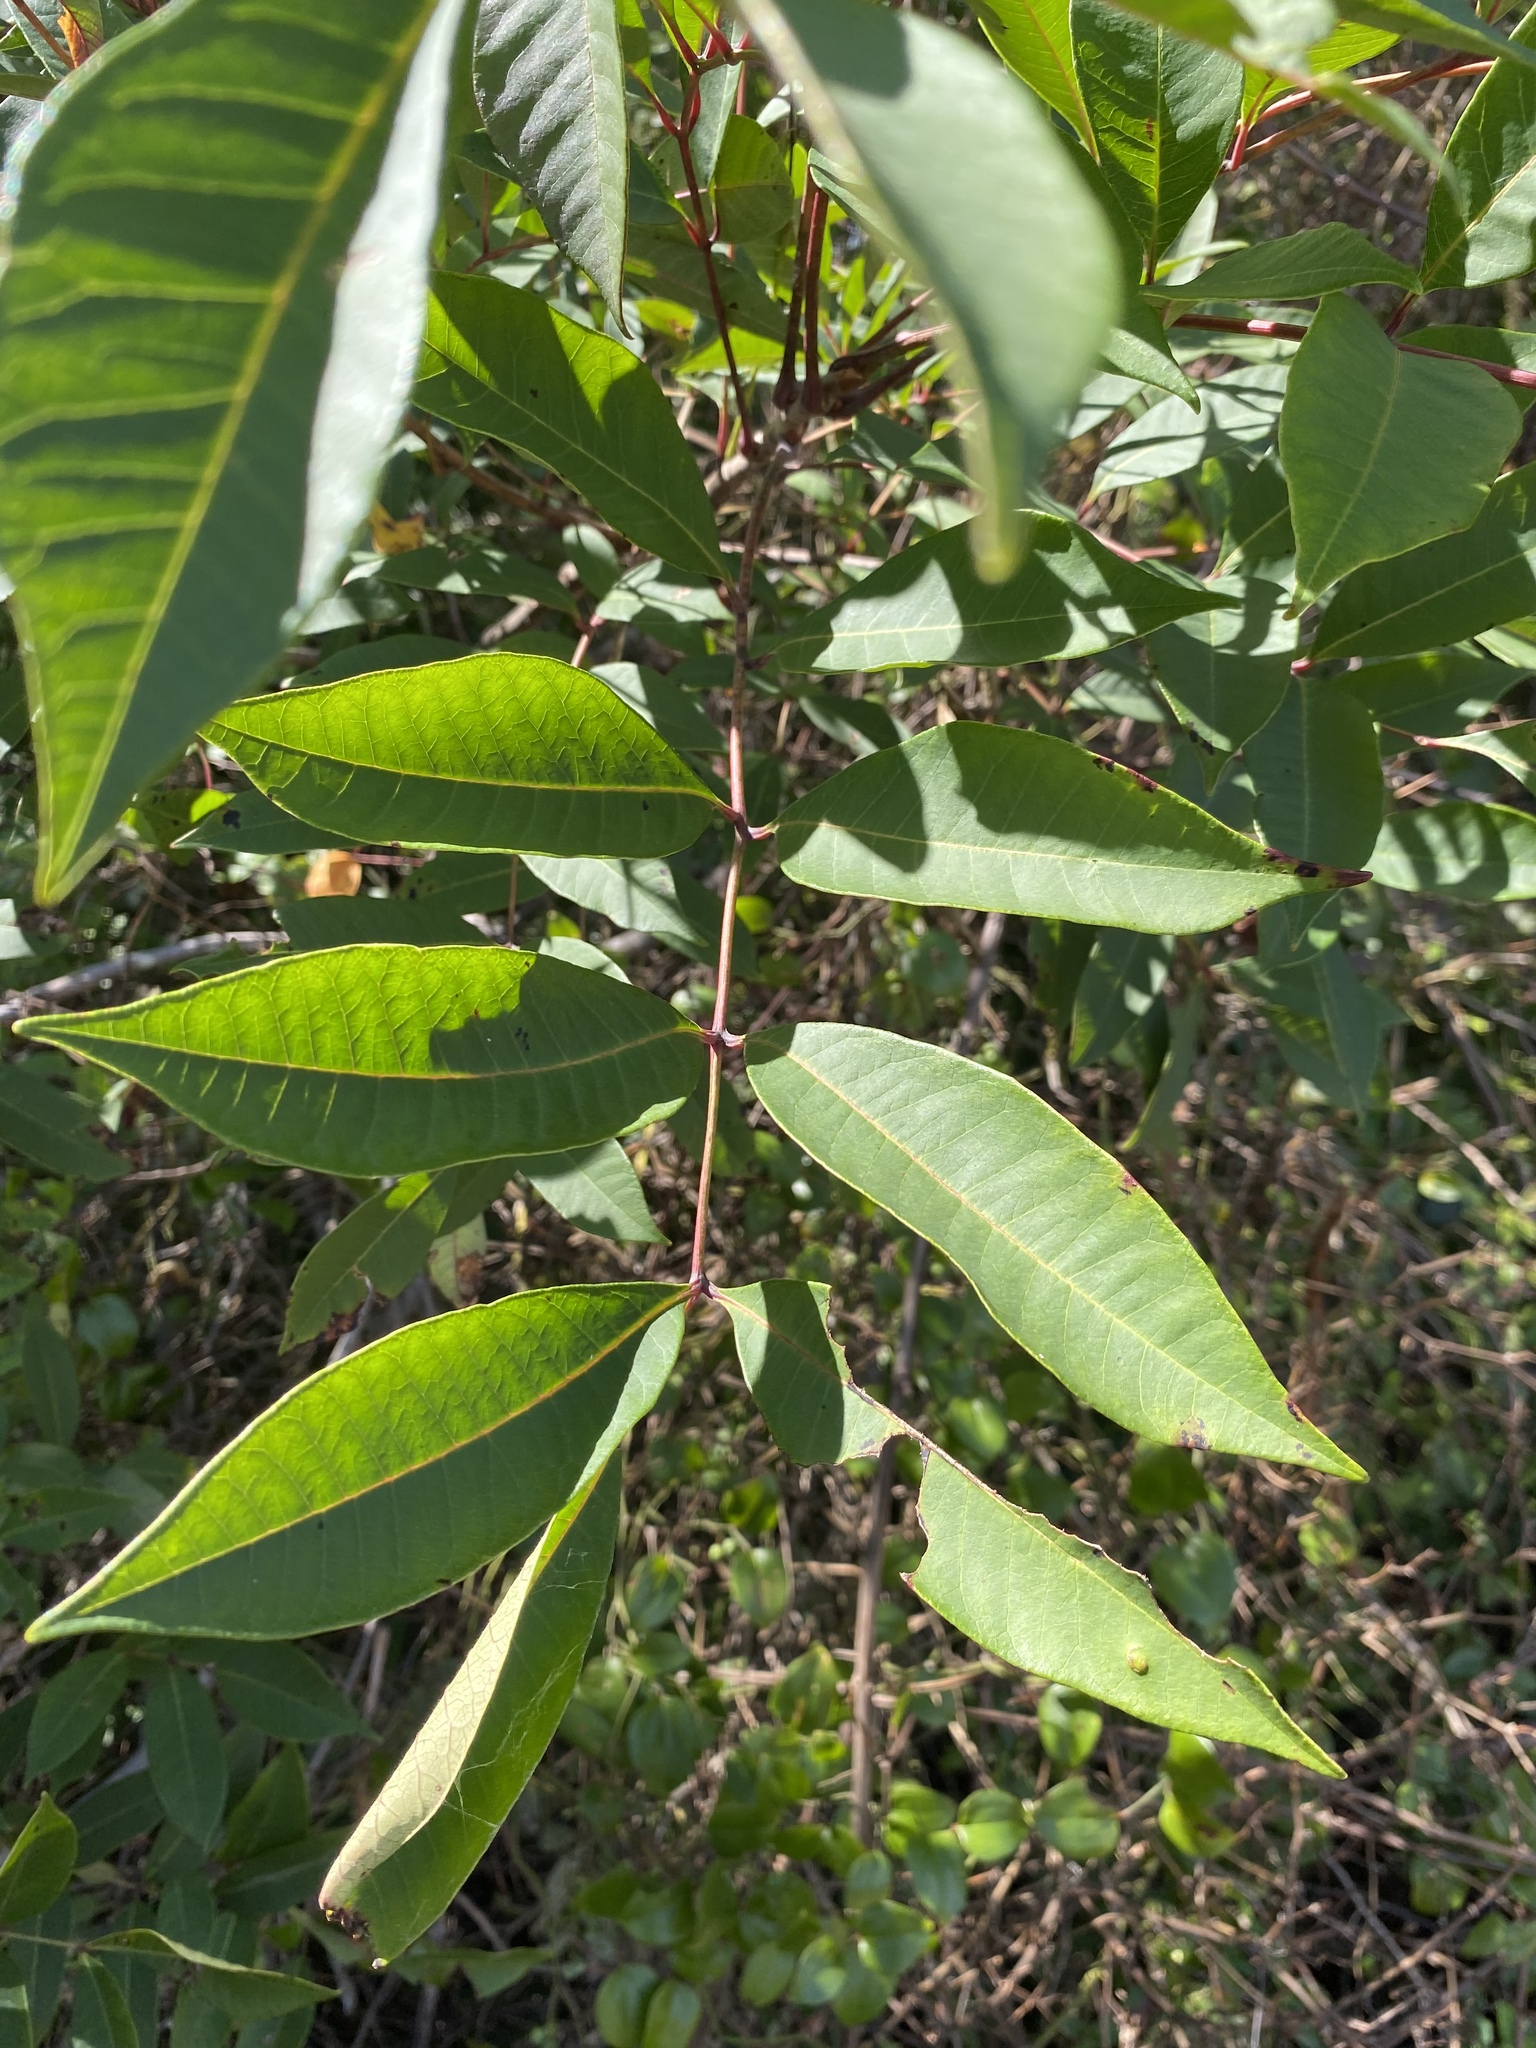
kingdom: Plantae
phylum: Tracheophyta
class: Magnoliopsida
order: Sapindales
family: Anacardiaceae
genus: Toxicodendron
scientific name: Toxicodendron vernix
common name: Poison sumac
